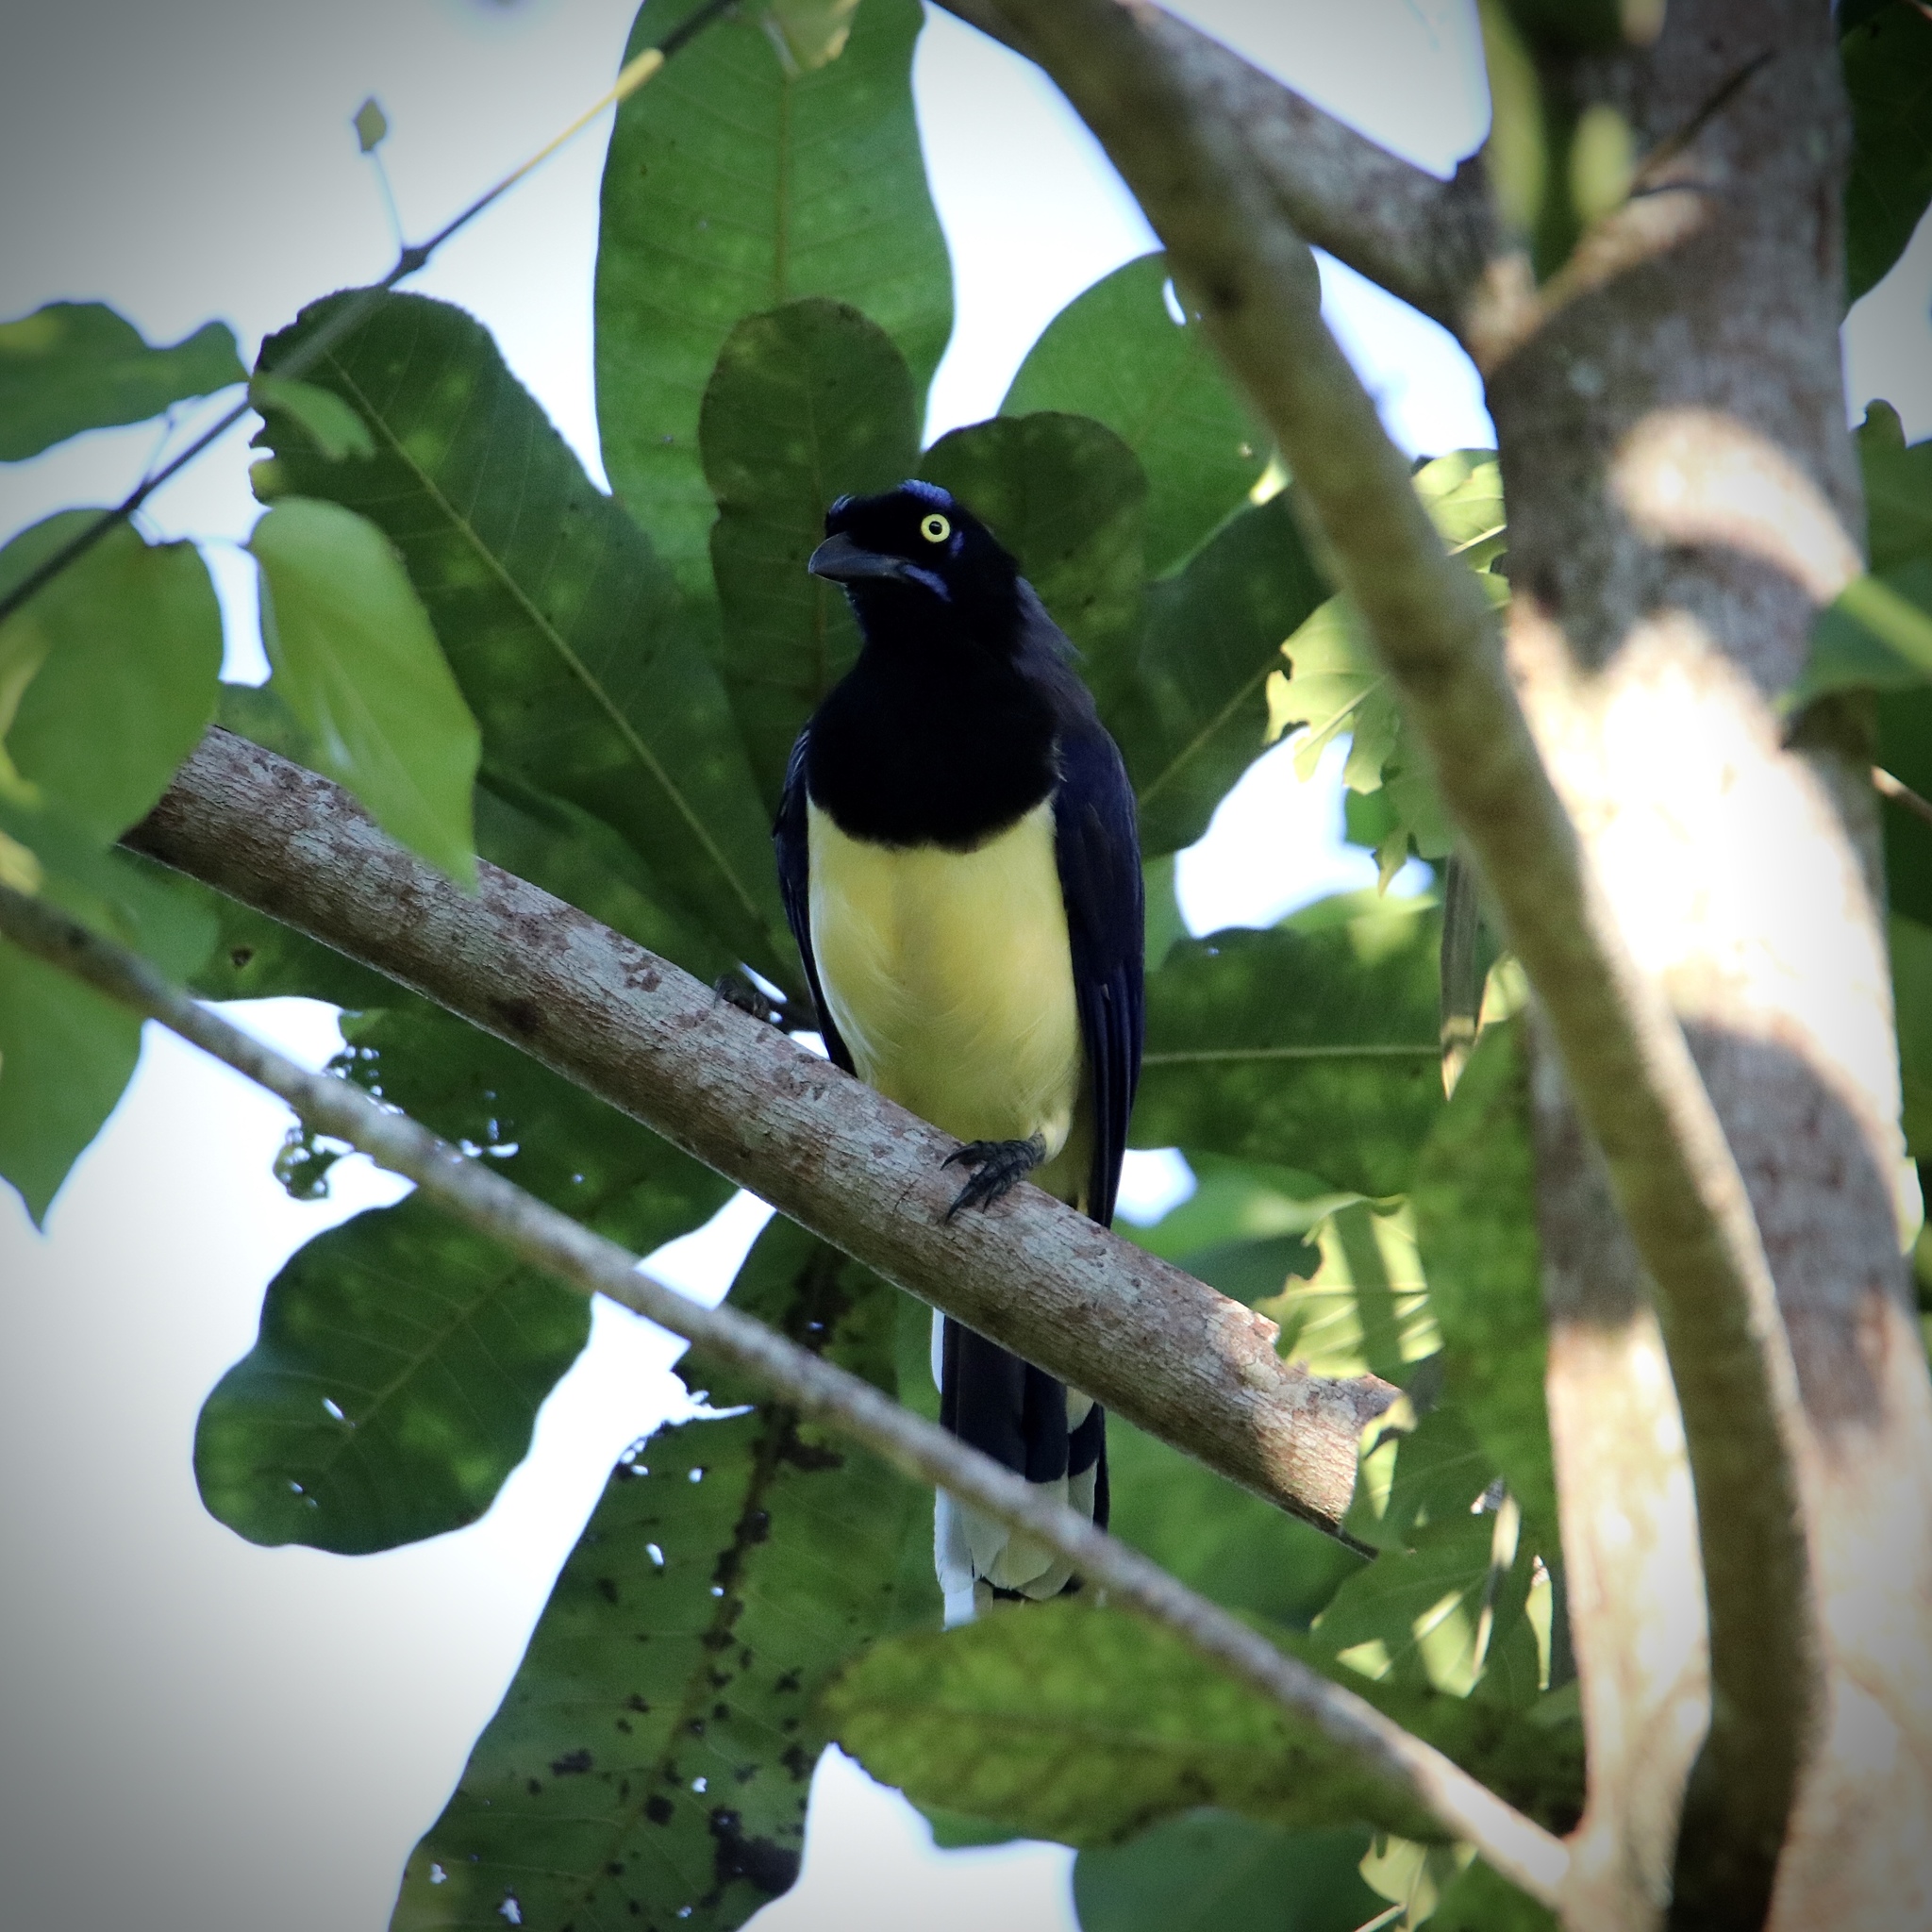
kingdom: Animalia
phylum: Chordata
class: Aves
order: Passeriformes
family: Corvidae
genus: Cyanocorax
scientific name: Cyanocorax affinis
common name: Black-chested jay
